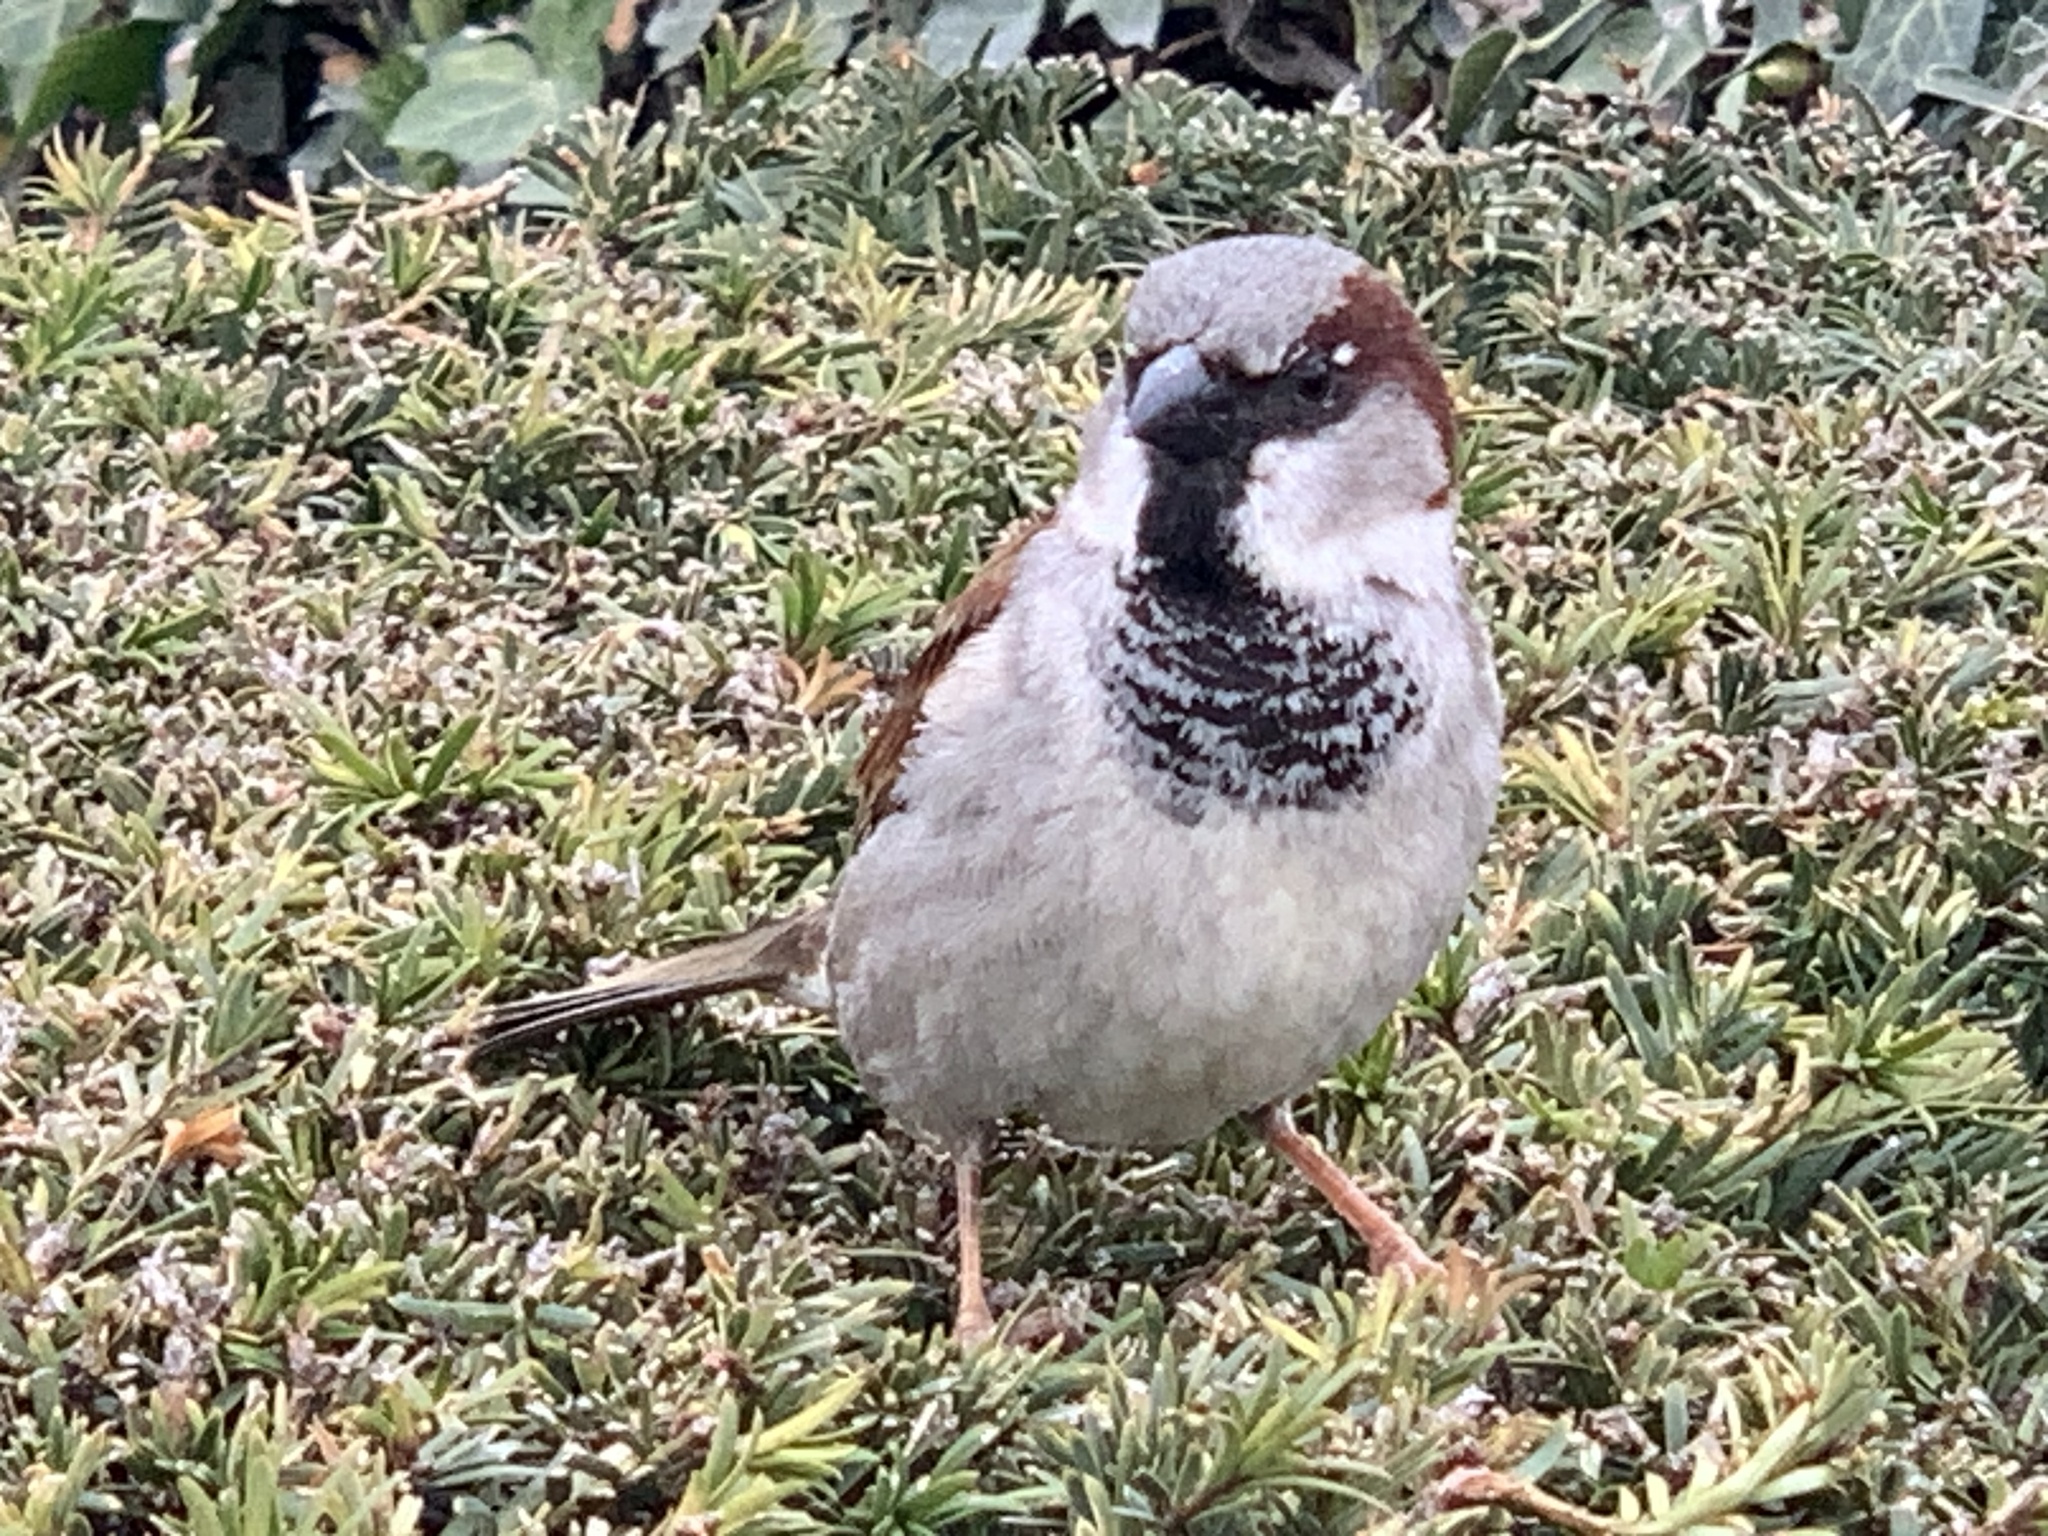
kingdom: Animalia
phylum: Chordata
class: Aves
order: Passeriformes
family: Passeridae
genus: Passer
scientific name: Passer domesticus
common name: House sparrow
